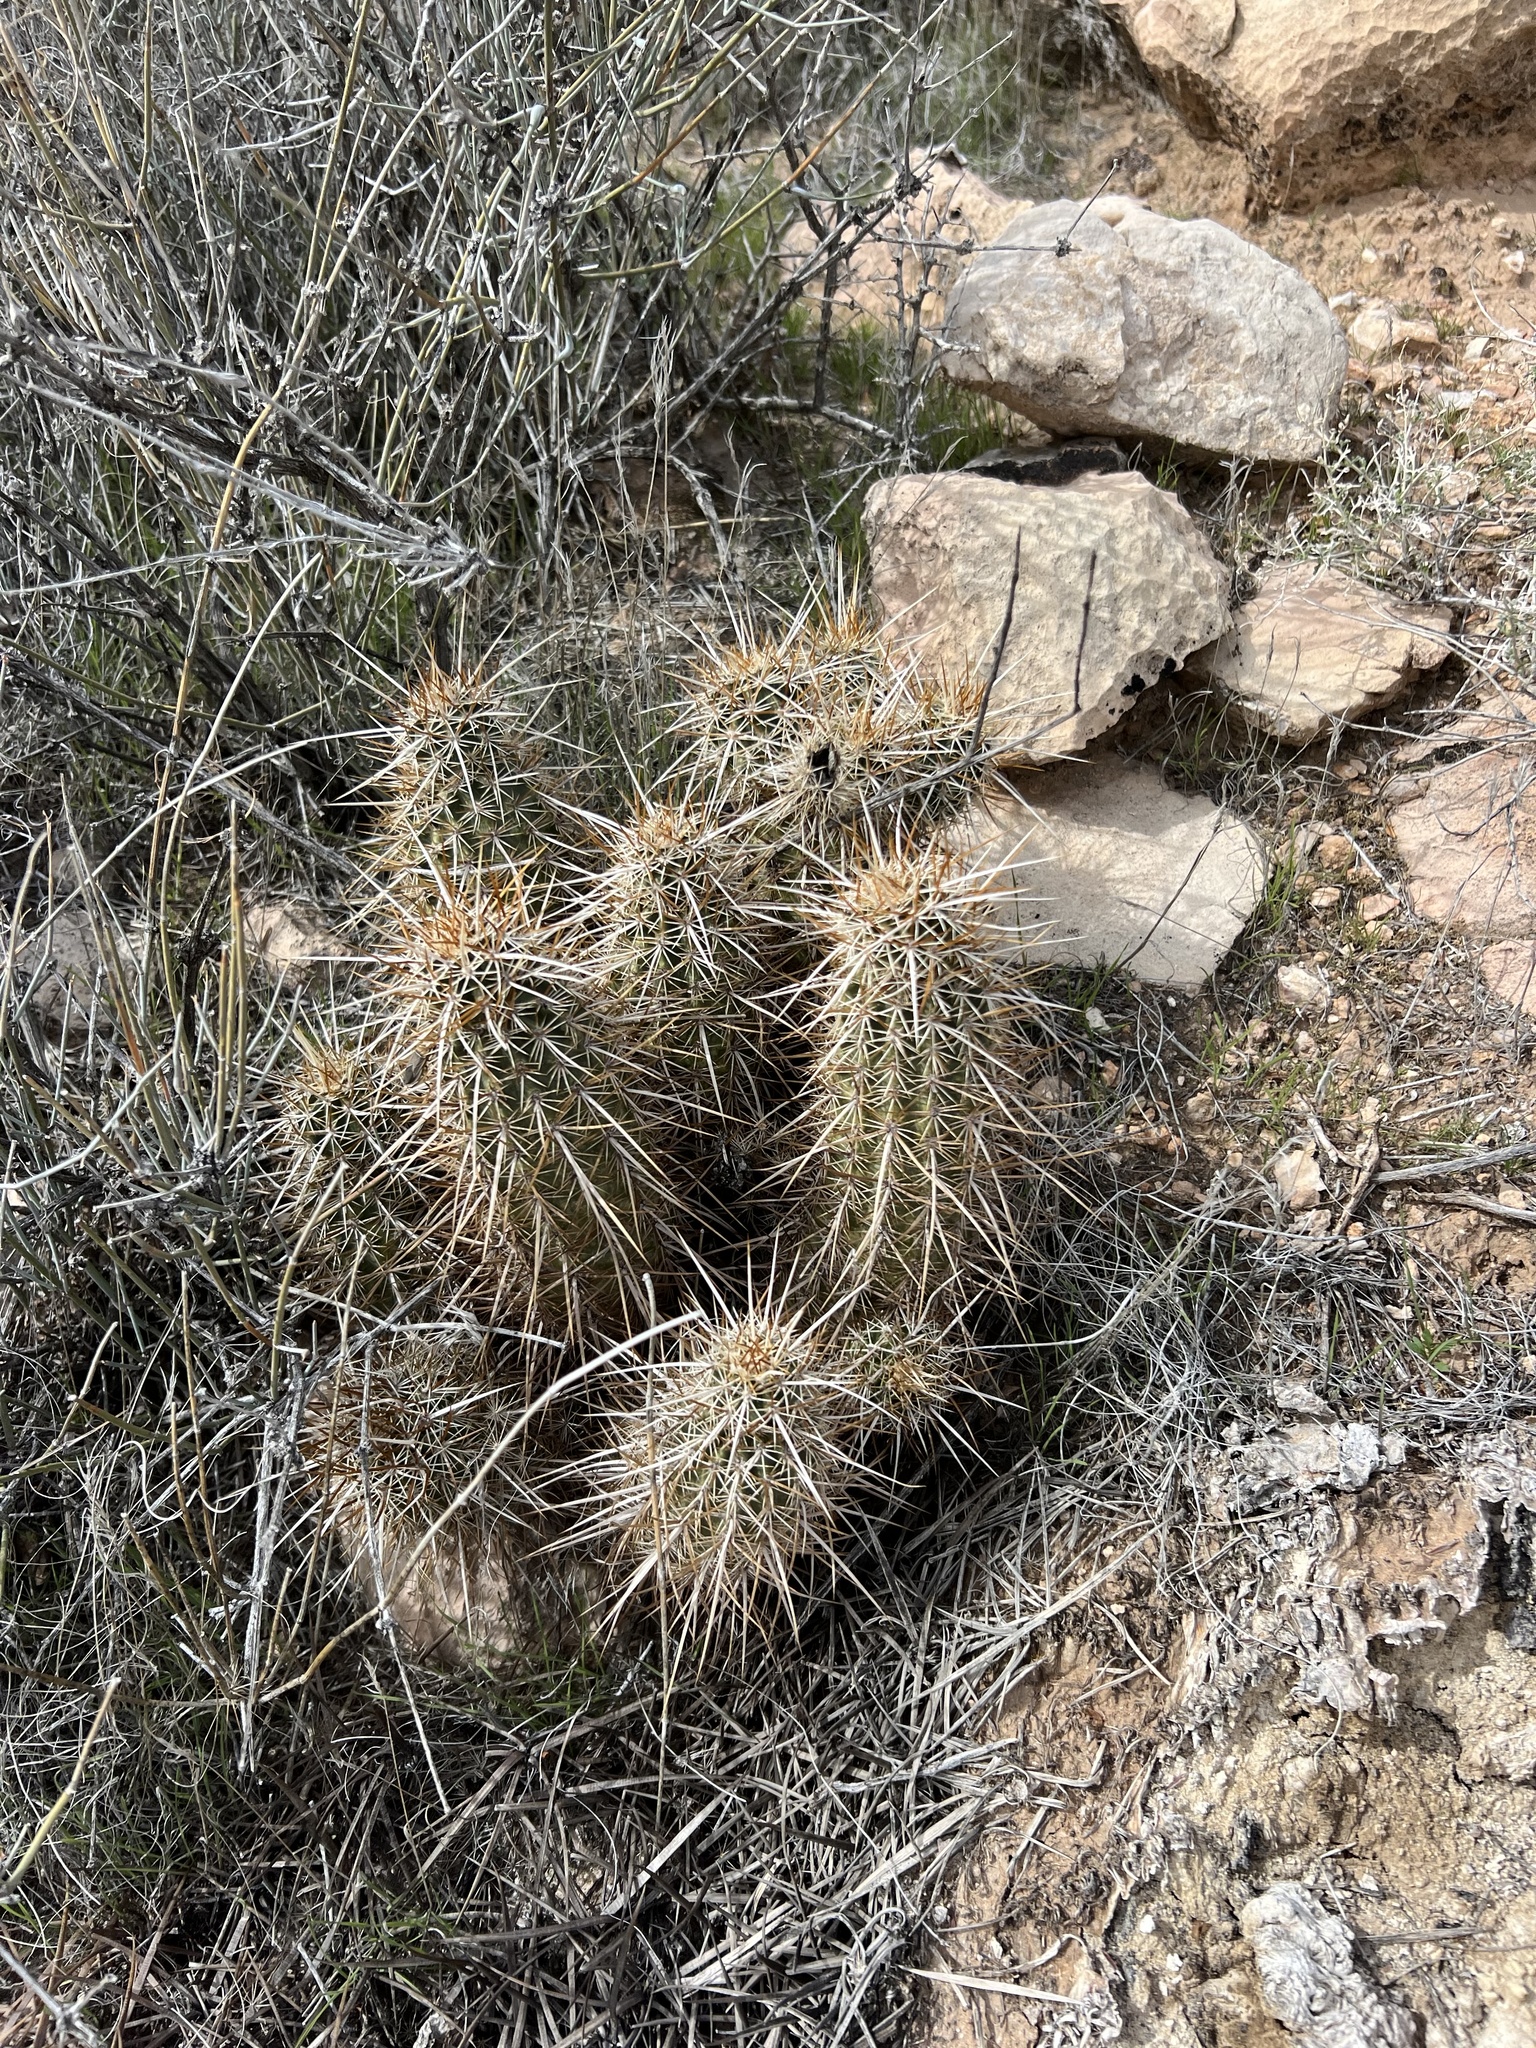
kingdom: Plantae
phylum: Tracheophyta
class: Magnoliopsida
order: Caryophyllales
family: Cactaceae
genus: Echinocereus
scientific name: Echinocereus engelmannii
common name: Engelmann's hedgehog cactus
